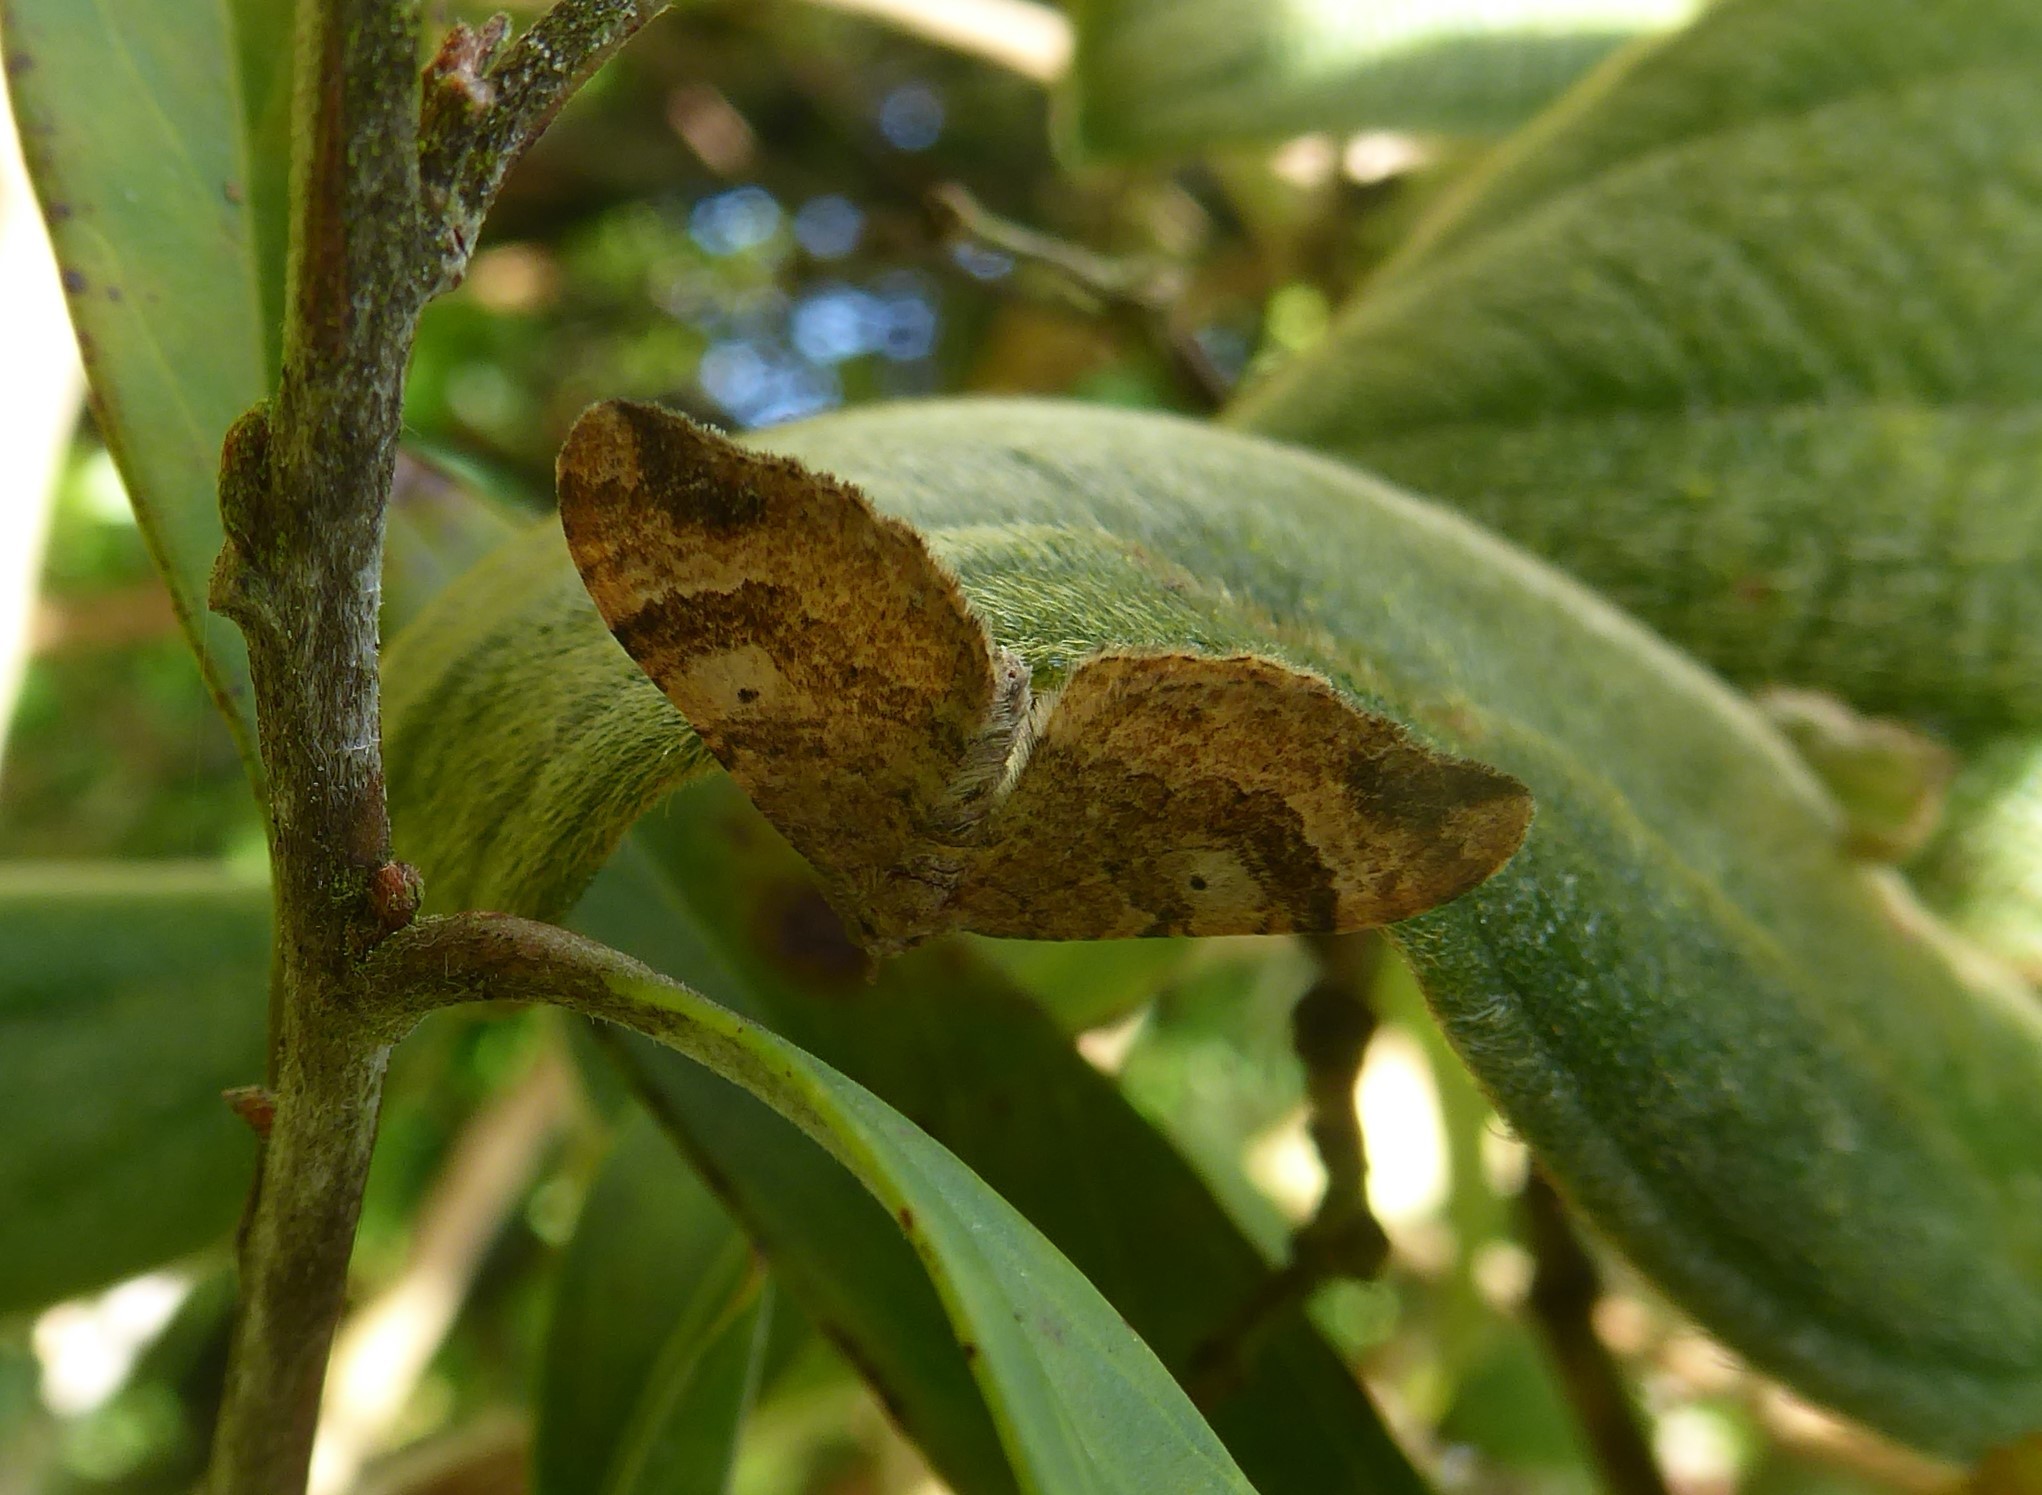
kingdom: Animalia
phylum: Arthropoda
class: Insecta
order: Lepidoptera
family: Geometridae
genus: Homodotis
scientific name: Homodotis megaspilata
